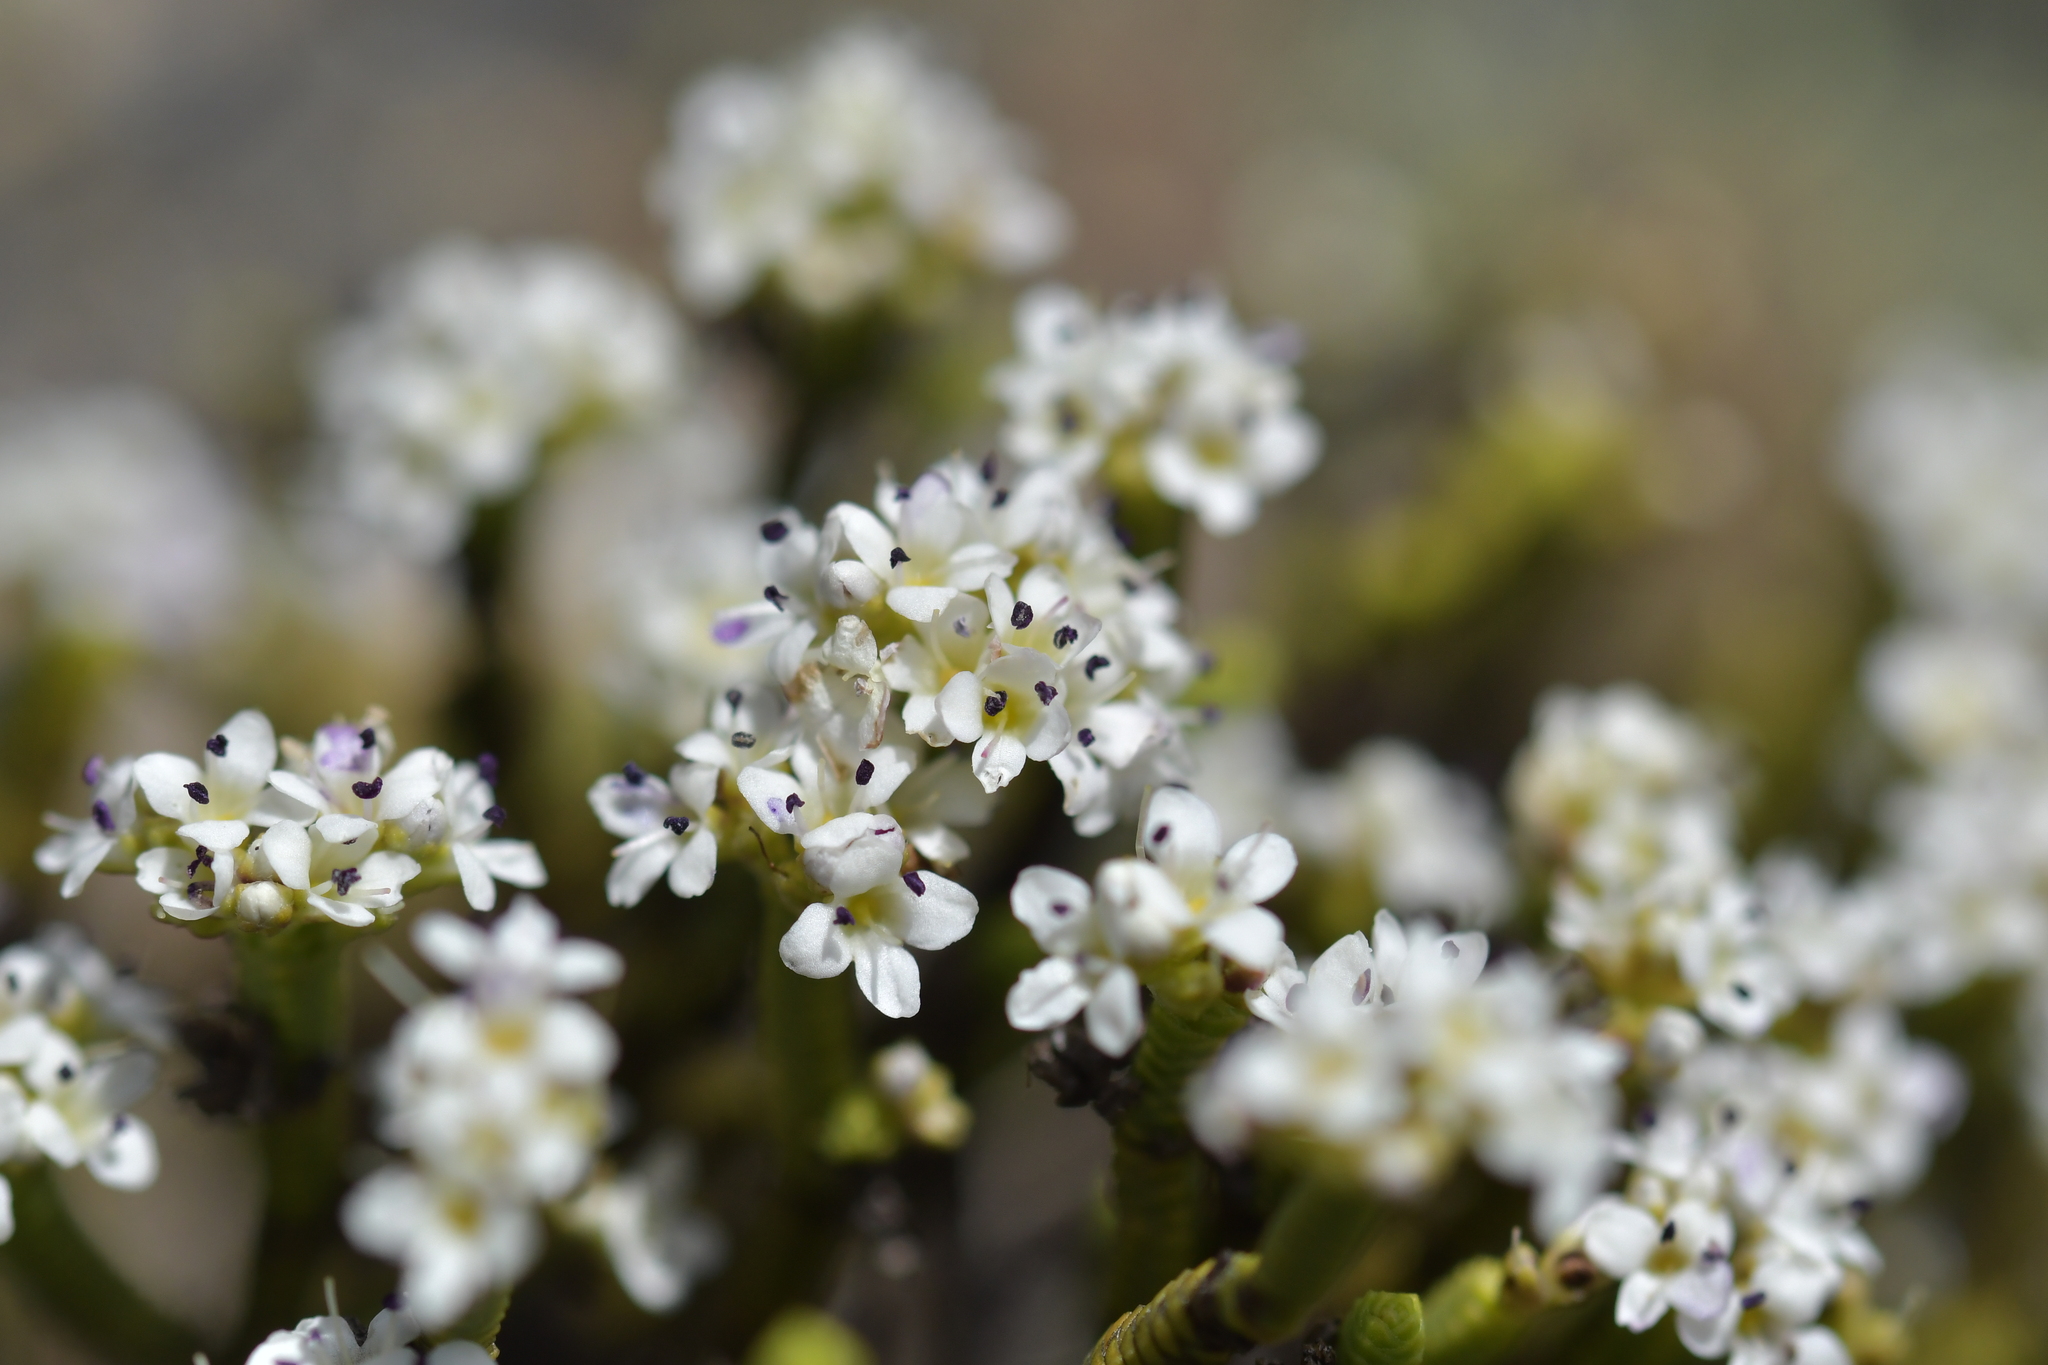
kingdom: Plantae
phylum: Tracheophyta
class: Magnoliopsida
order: Lamiales
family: Plantaginaceae
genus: Veronica
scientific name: Veronica quadrifaria
